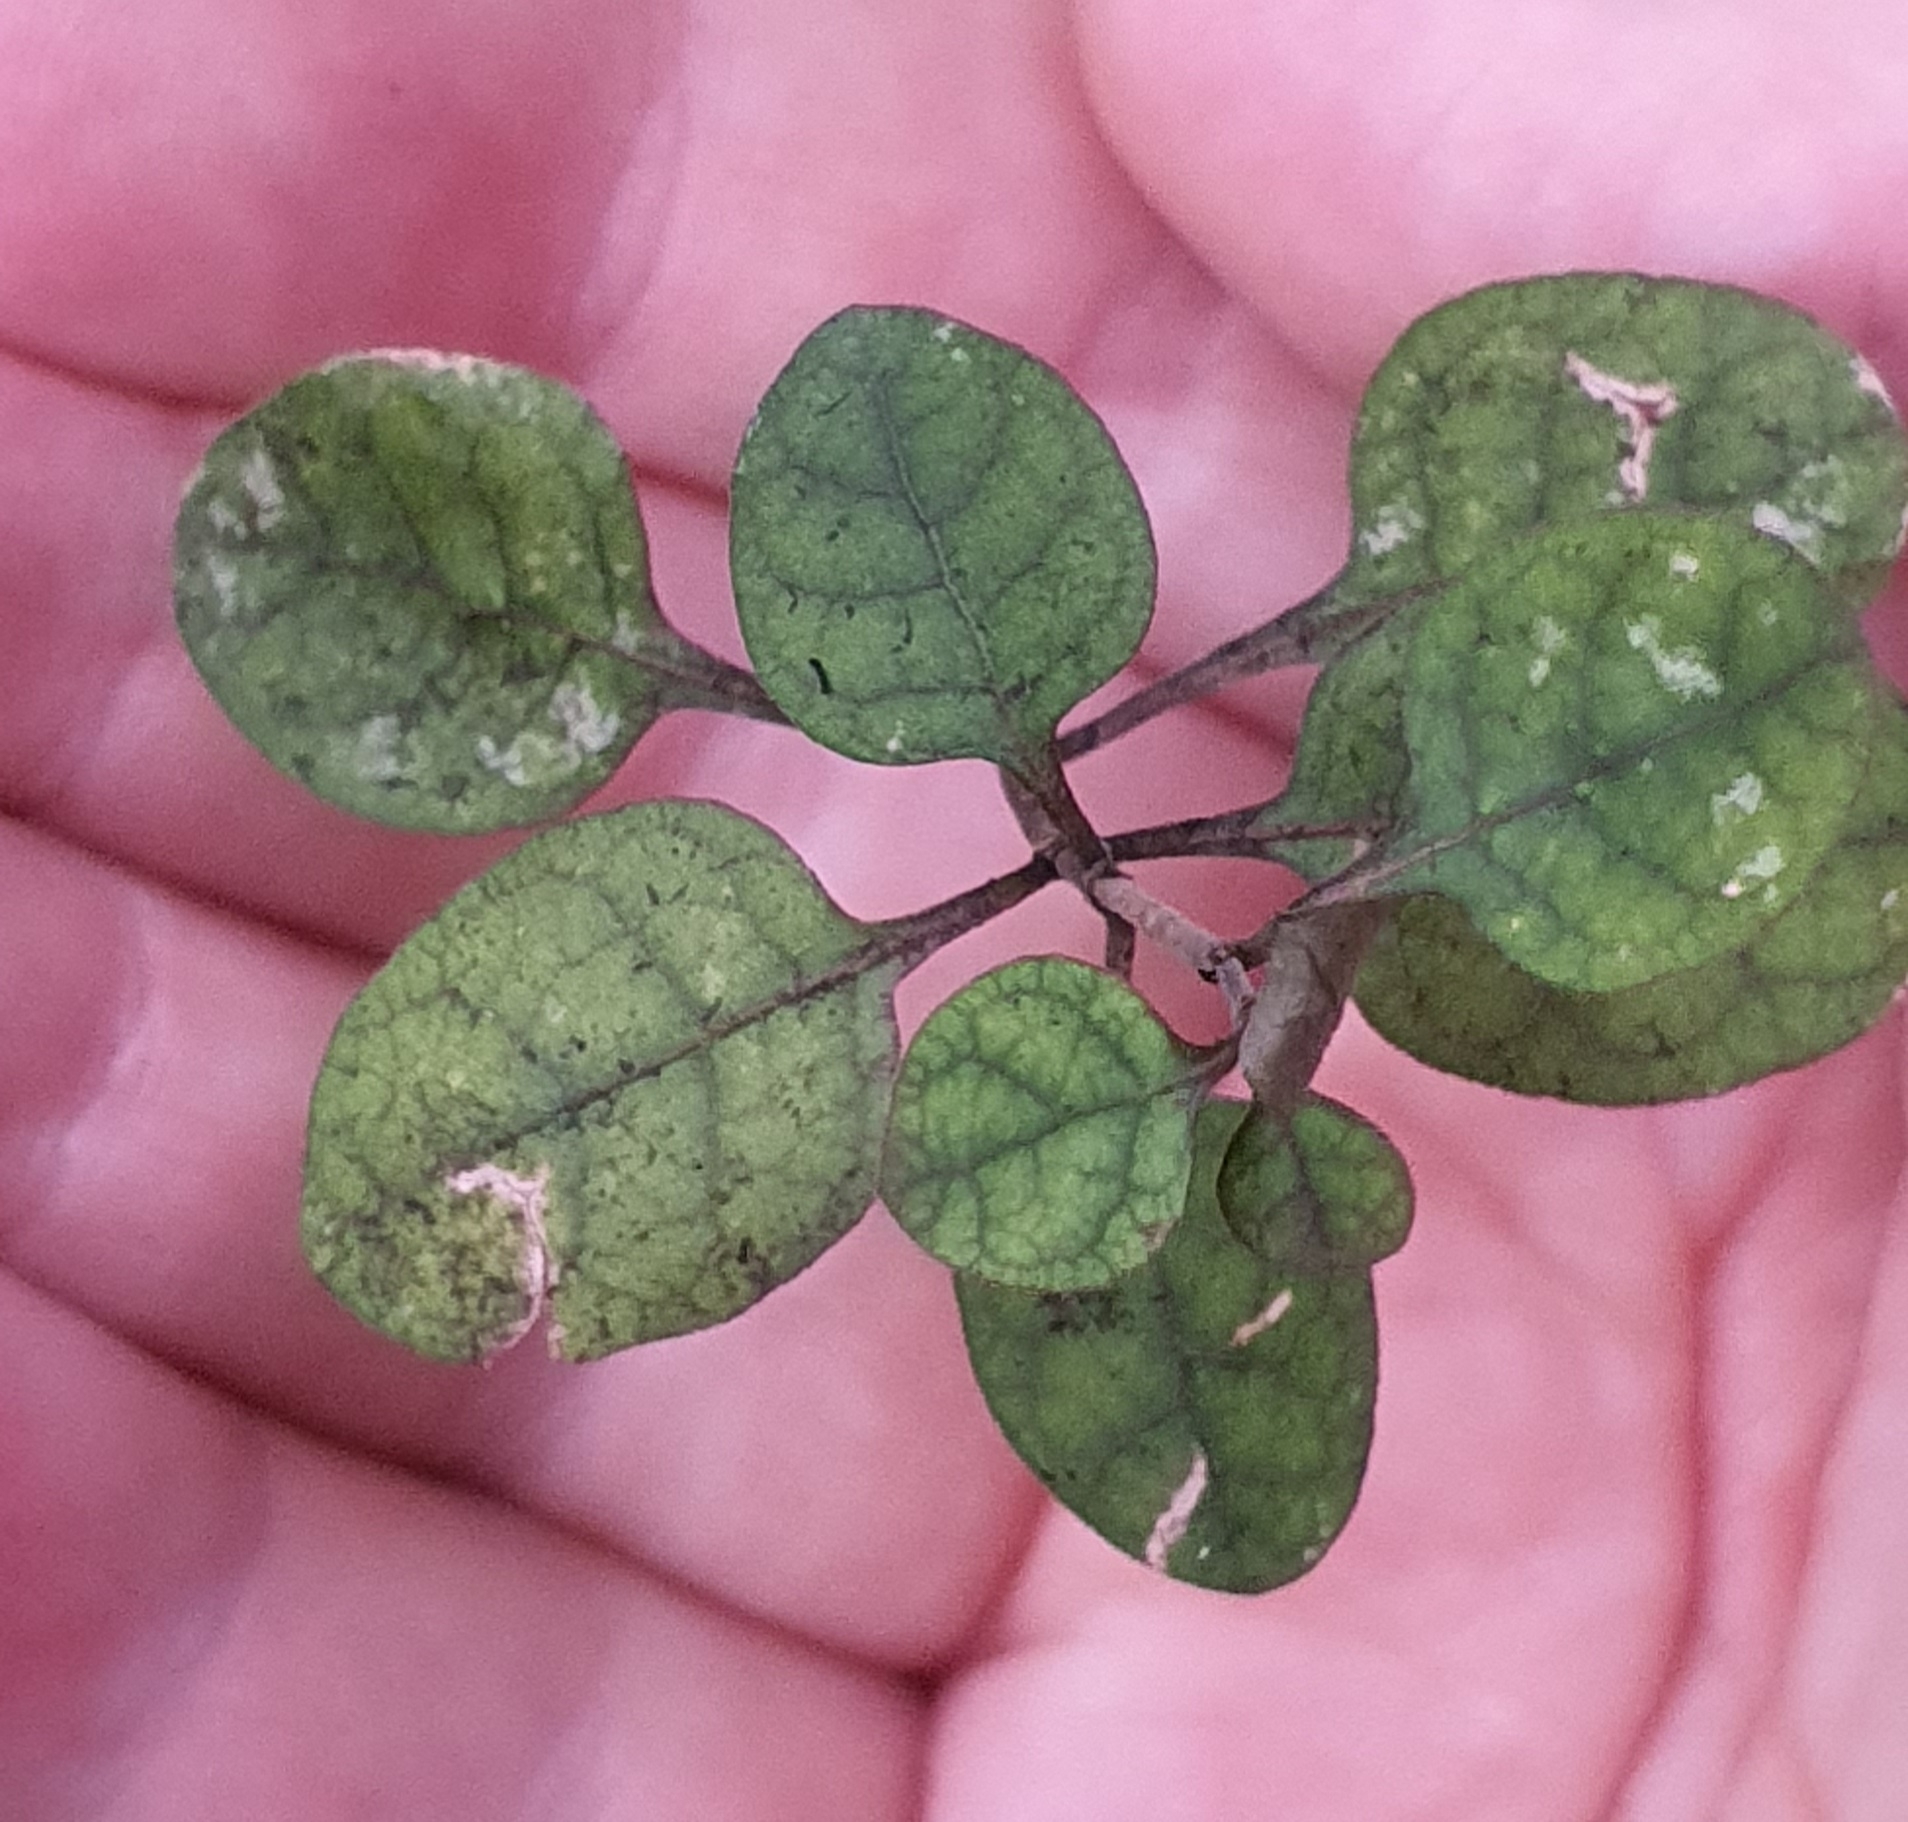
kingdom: Plantae
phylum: Tracheophyta
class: Magnoliopsida
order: Gentianales
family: Rubiaceae
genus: Coprosma
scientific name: Coprosma tenuicaulis
